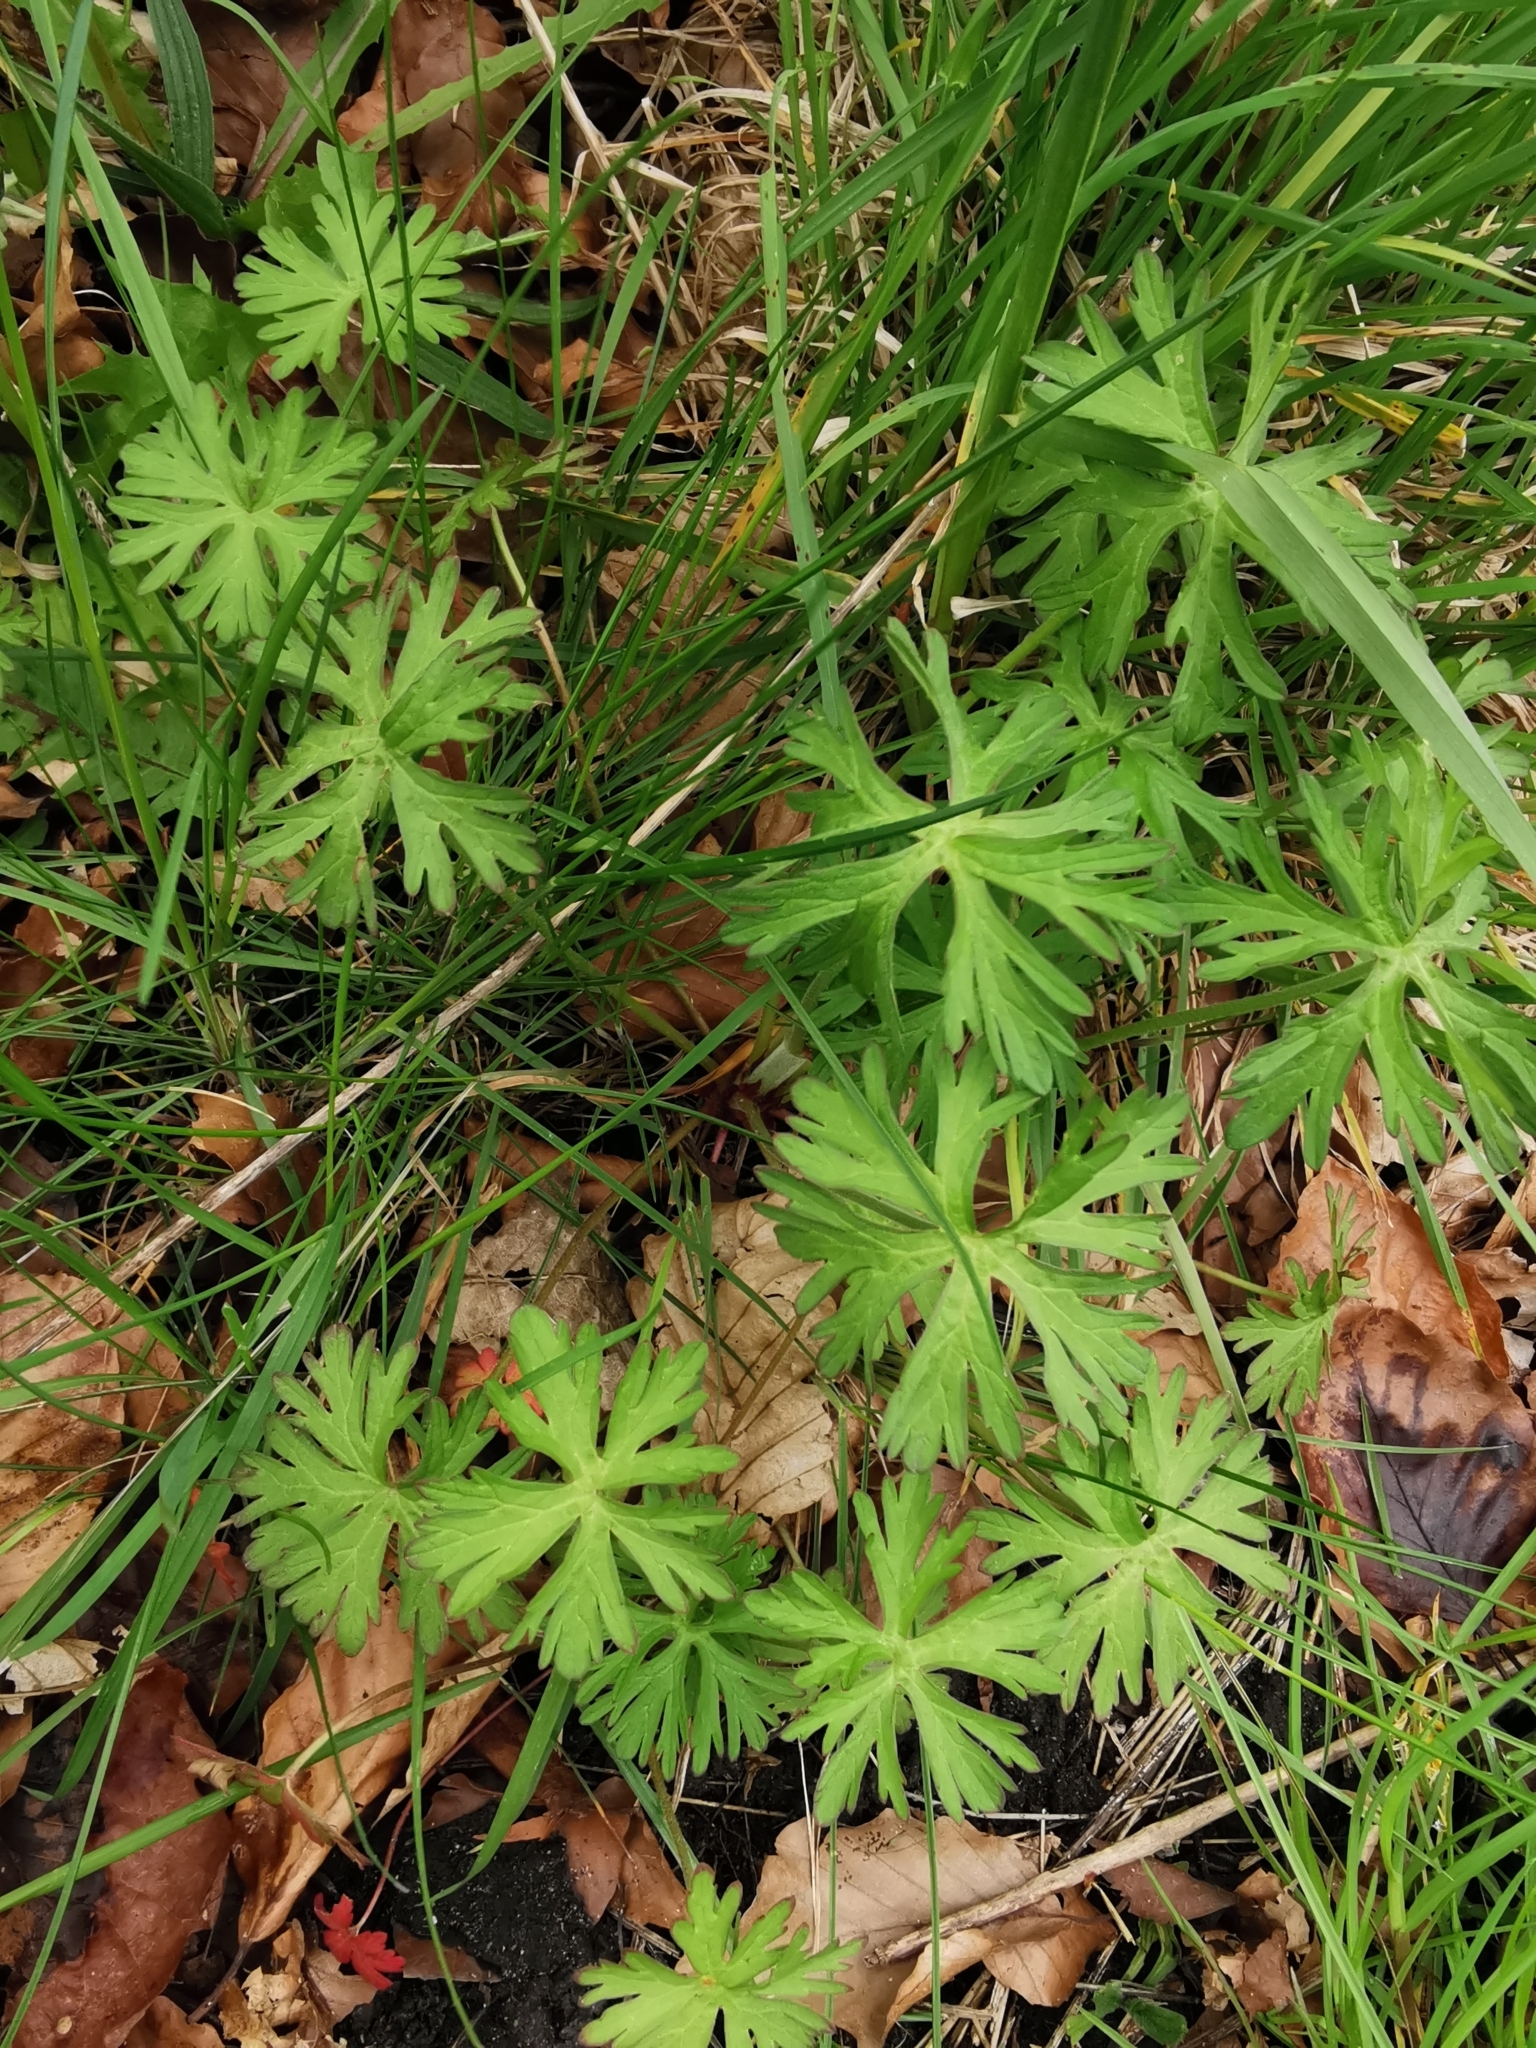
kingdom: Plantae
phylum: Tracheophyta
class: Magnoliopsida
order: Geraniales
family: Geraniaceae
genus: Geranium
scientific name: Geranium dissectum
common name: Cut-leaved crane's-bill
